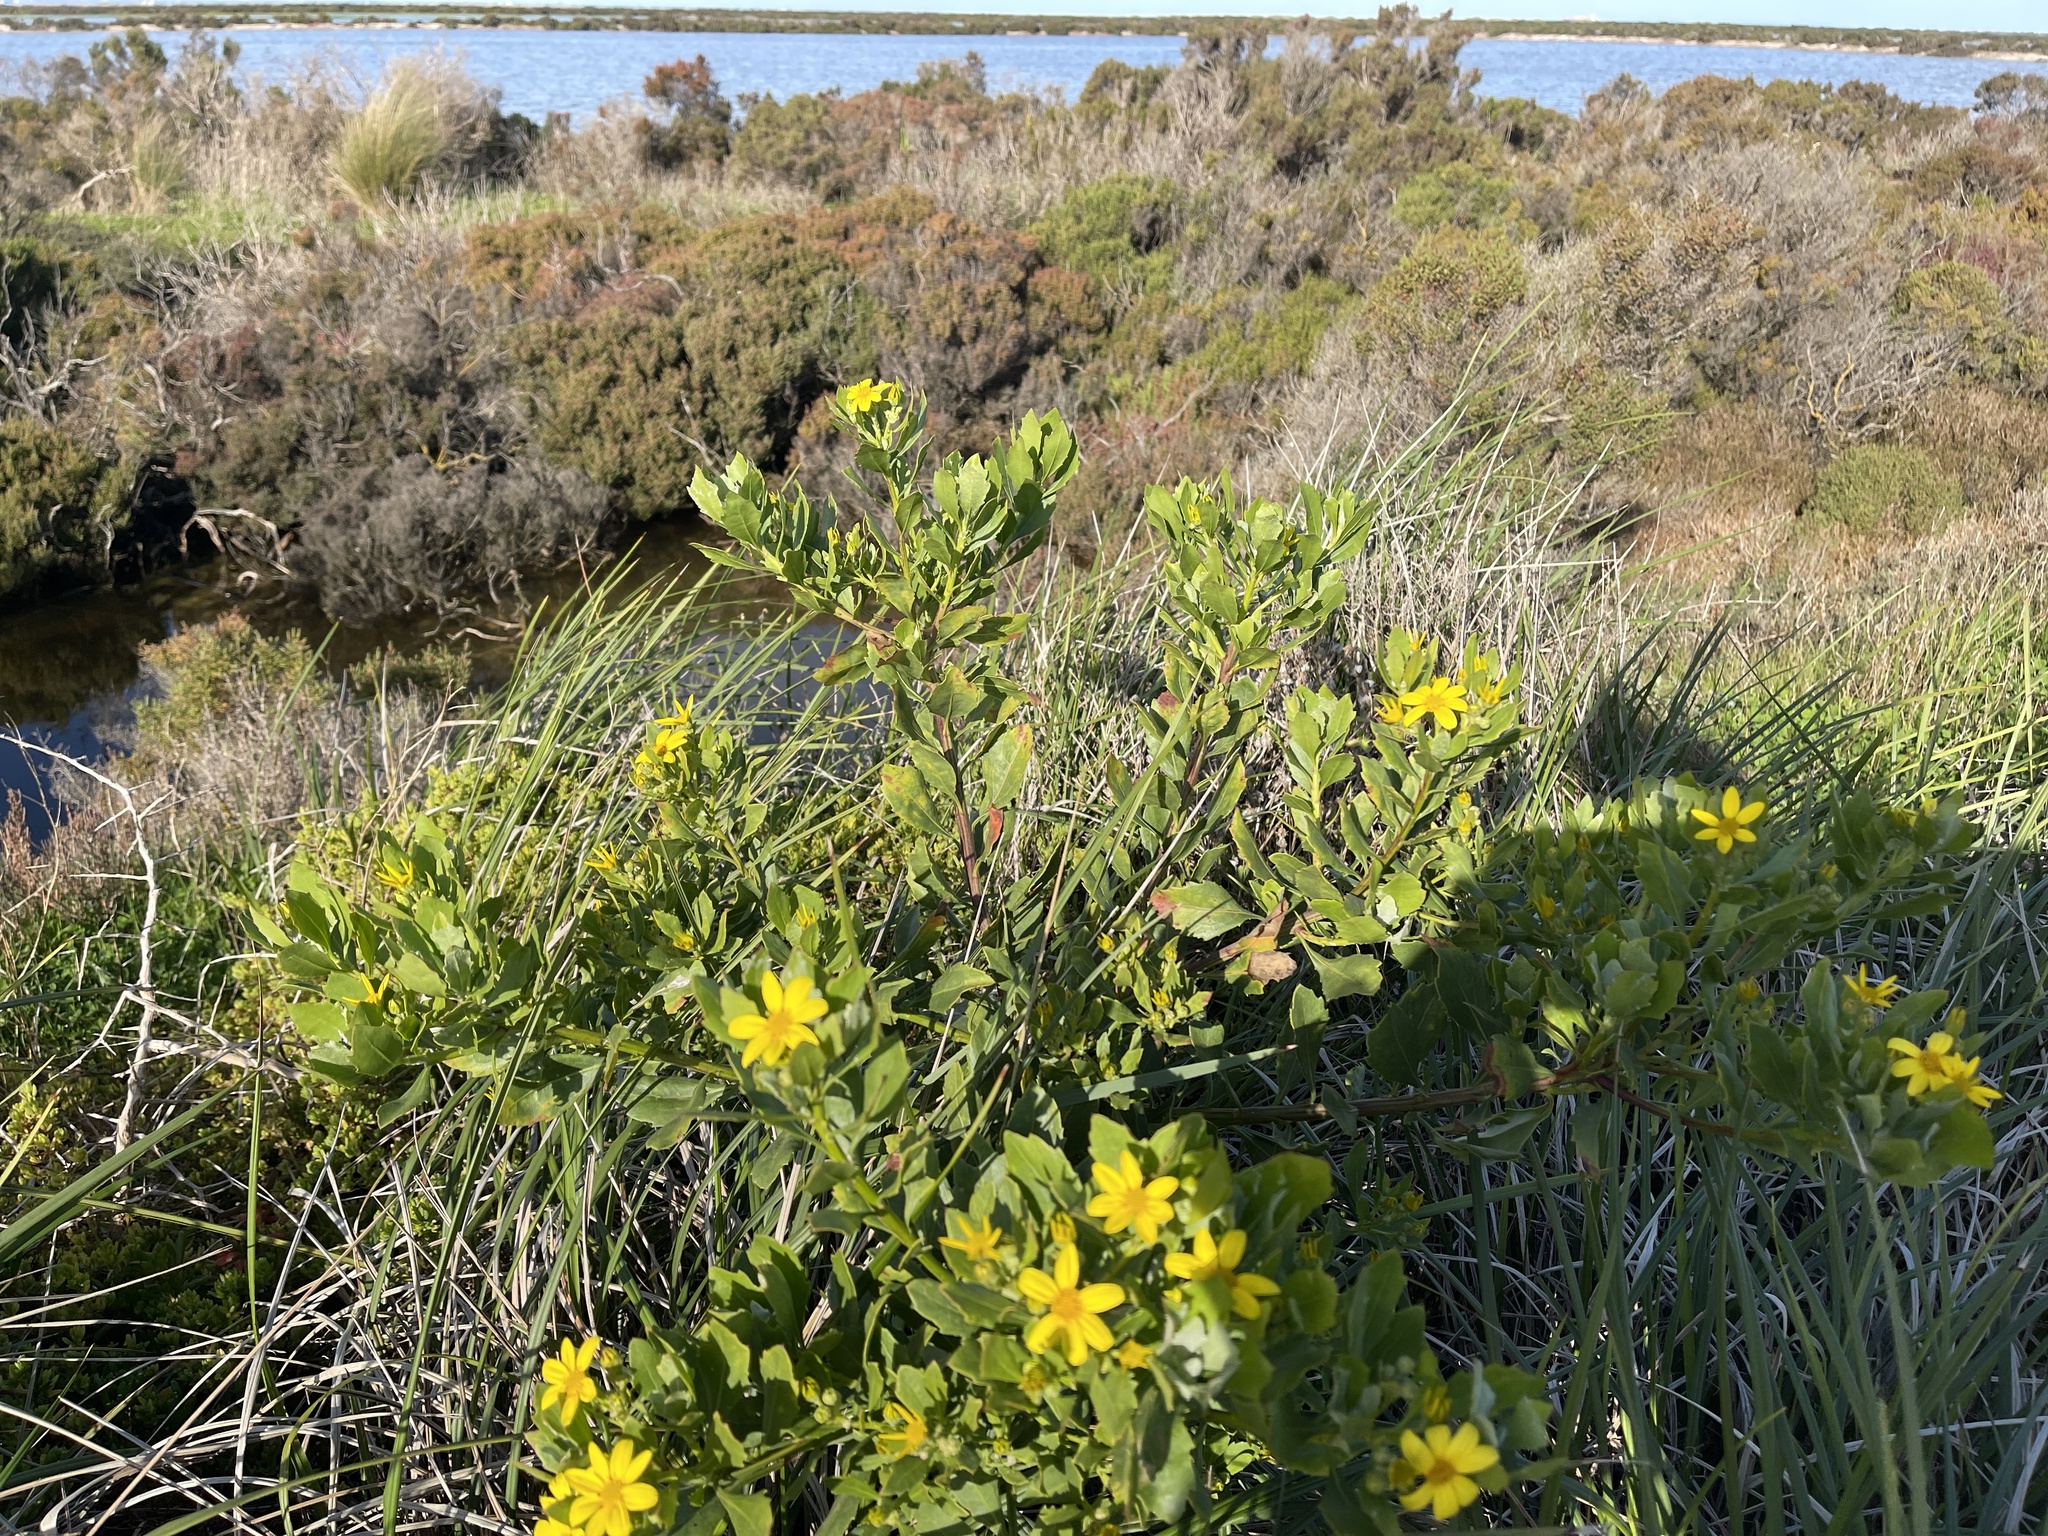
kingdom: Plantae
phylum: Tracheophyta
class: Magnoliopsida
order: Asterales
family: Asteraceae
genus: Osteospermum
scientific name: Osteospermum moniliferum
